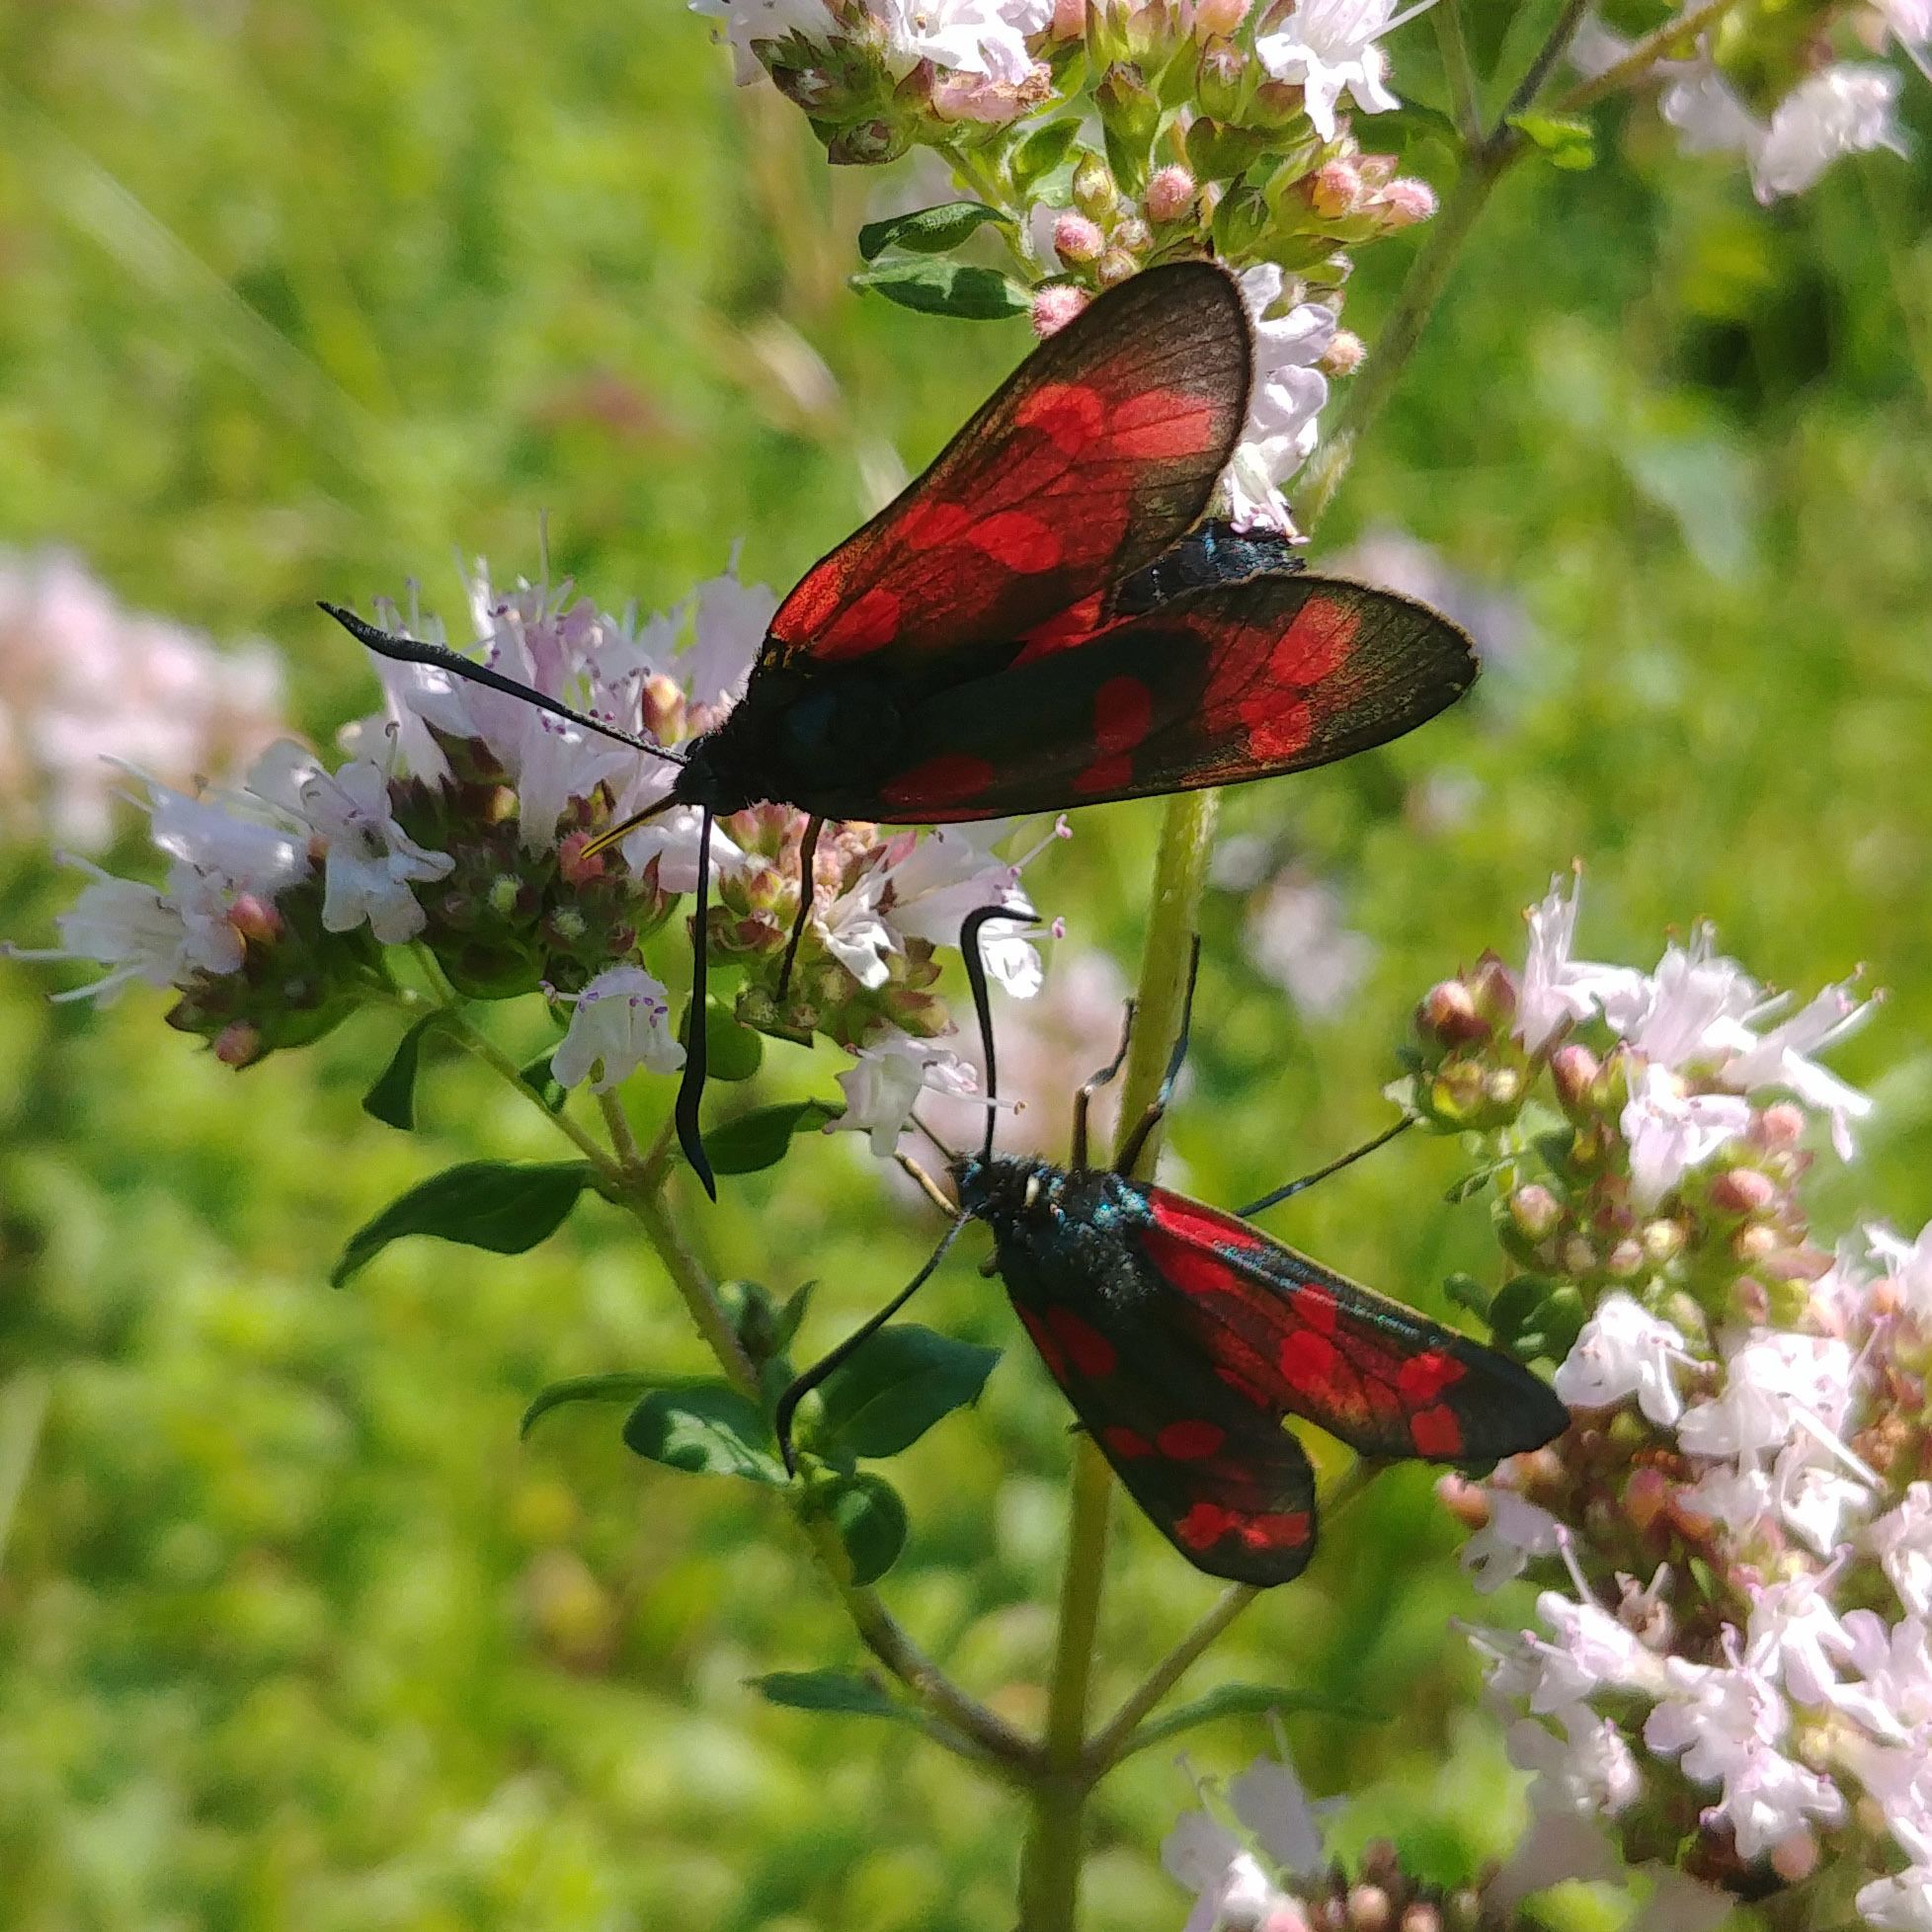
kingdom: Animalia
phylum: Arthropoda
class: Insecta
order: Lepidoptera
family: Zygaenidae
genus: Zygaena
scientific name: Zygaena filipendulae
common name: Six-spot burnet
